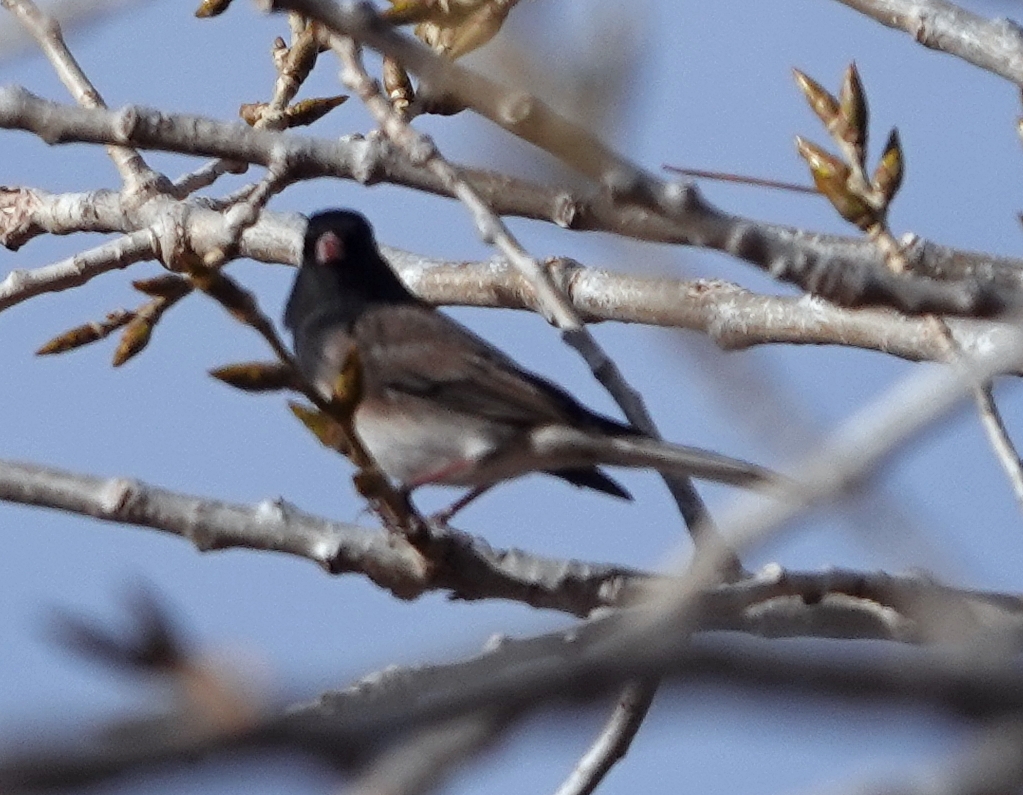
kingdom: Animalia
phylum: Chordata
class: Aves
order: Passeriformes
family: Passerellidae
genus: Junco
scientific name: Junco hyemalis
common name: Dark-eyed junco
